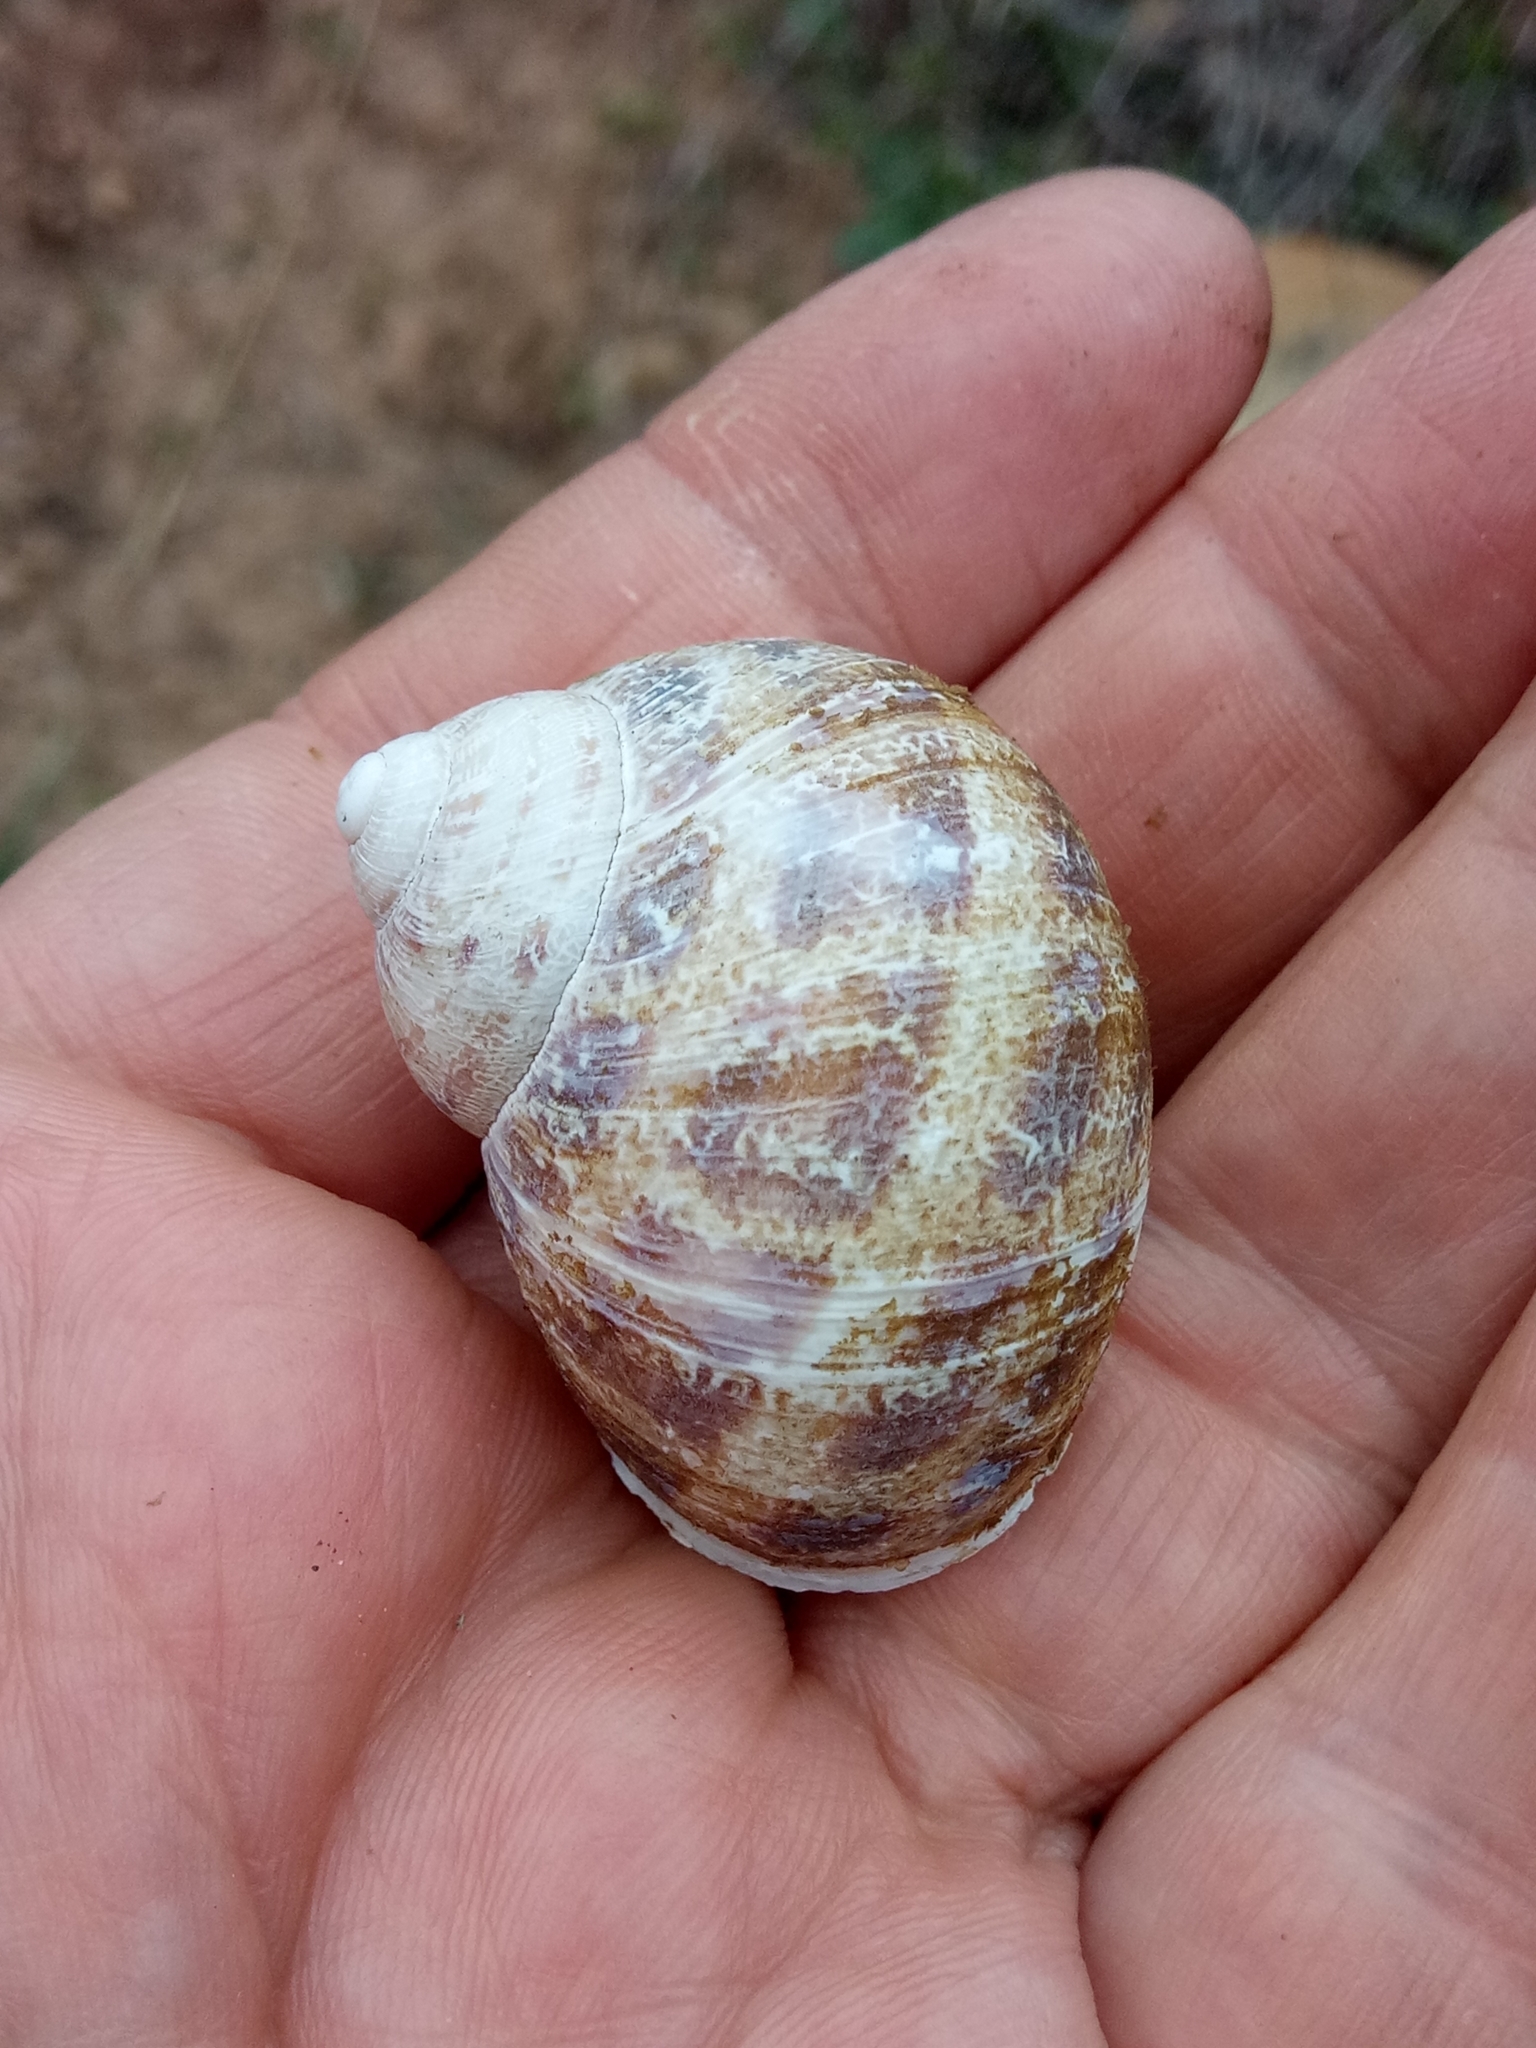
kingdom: Animalia
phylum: Mollusca
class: Gastropoda
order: Stylommatophora
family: Helicidae
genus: Cornu
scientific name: Cornu aspersum
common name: Brown garden snail
